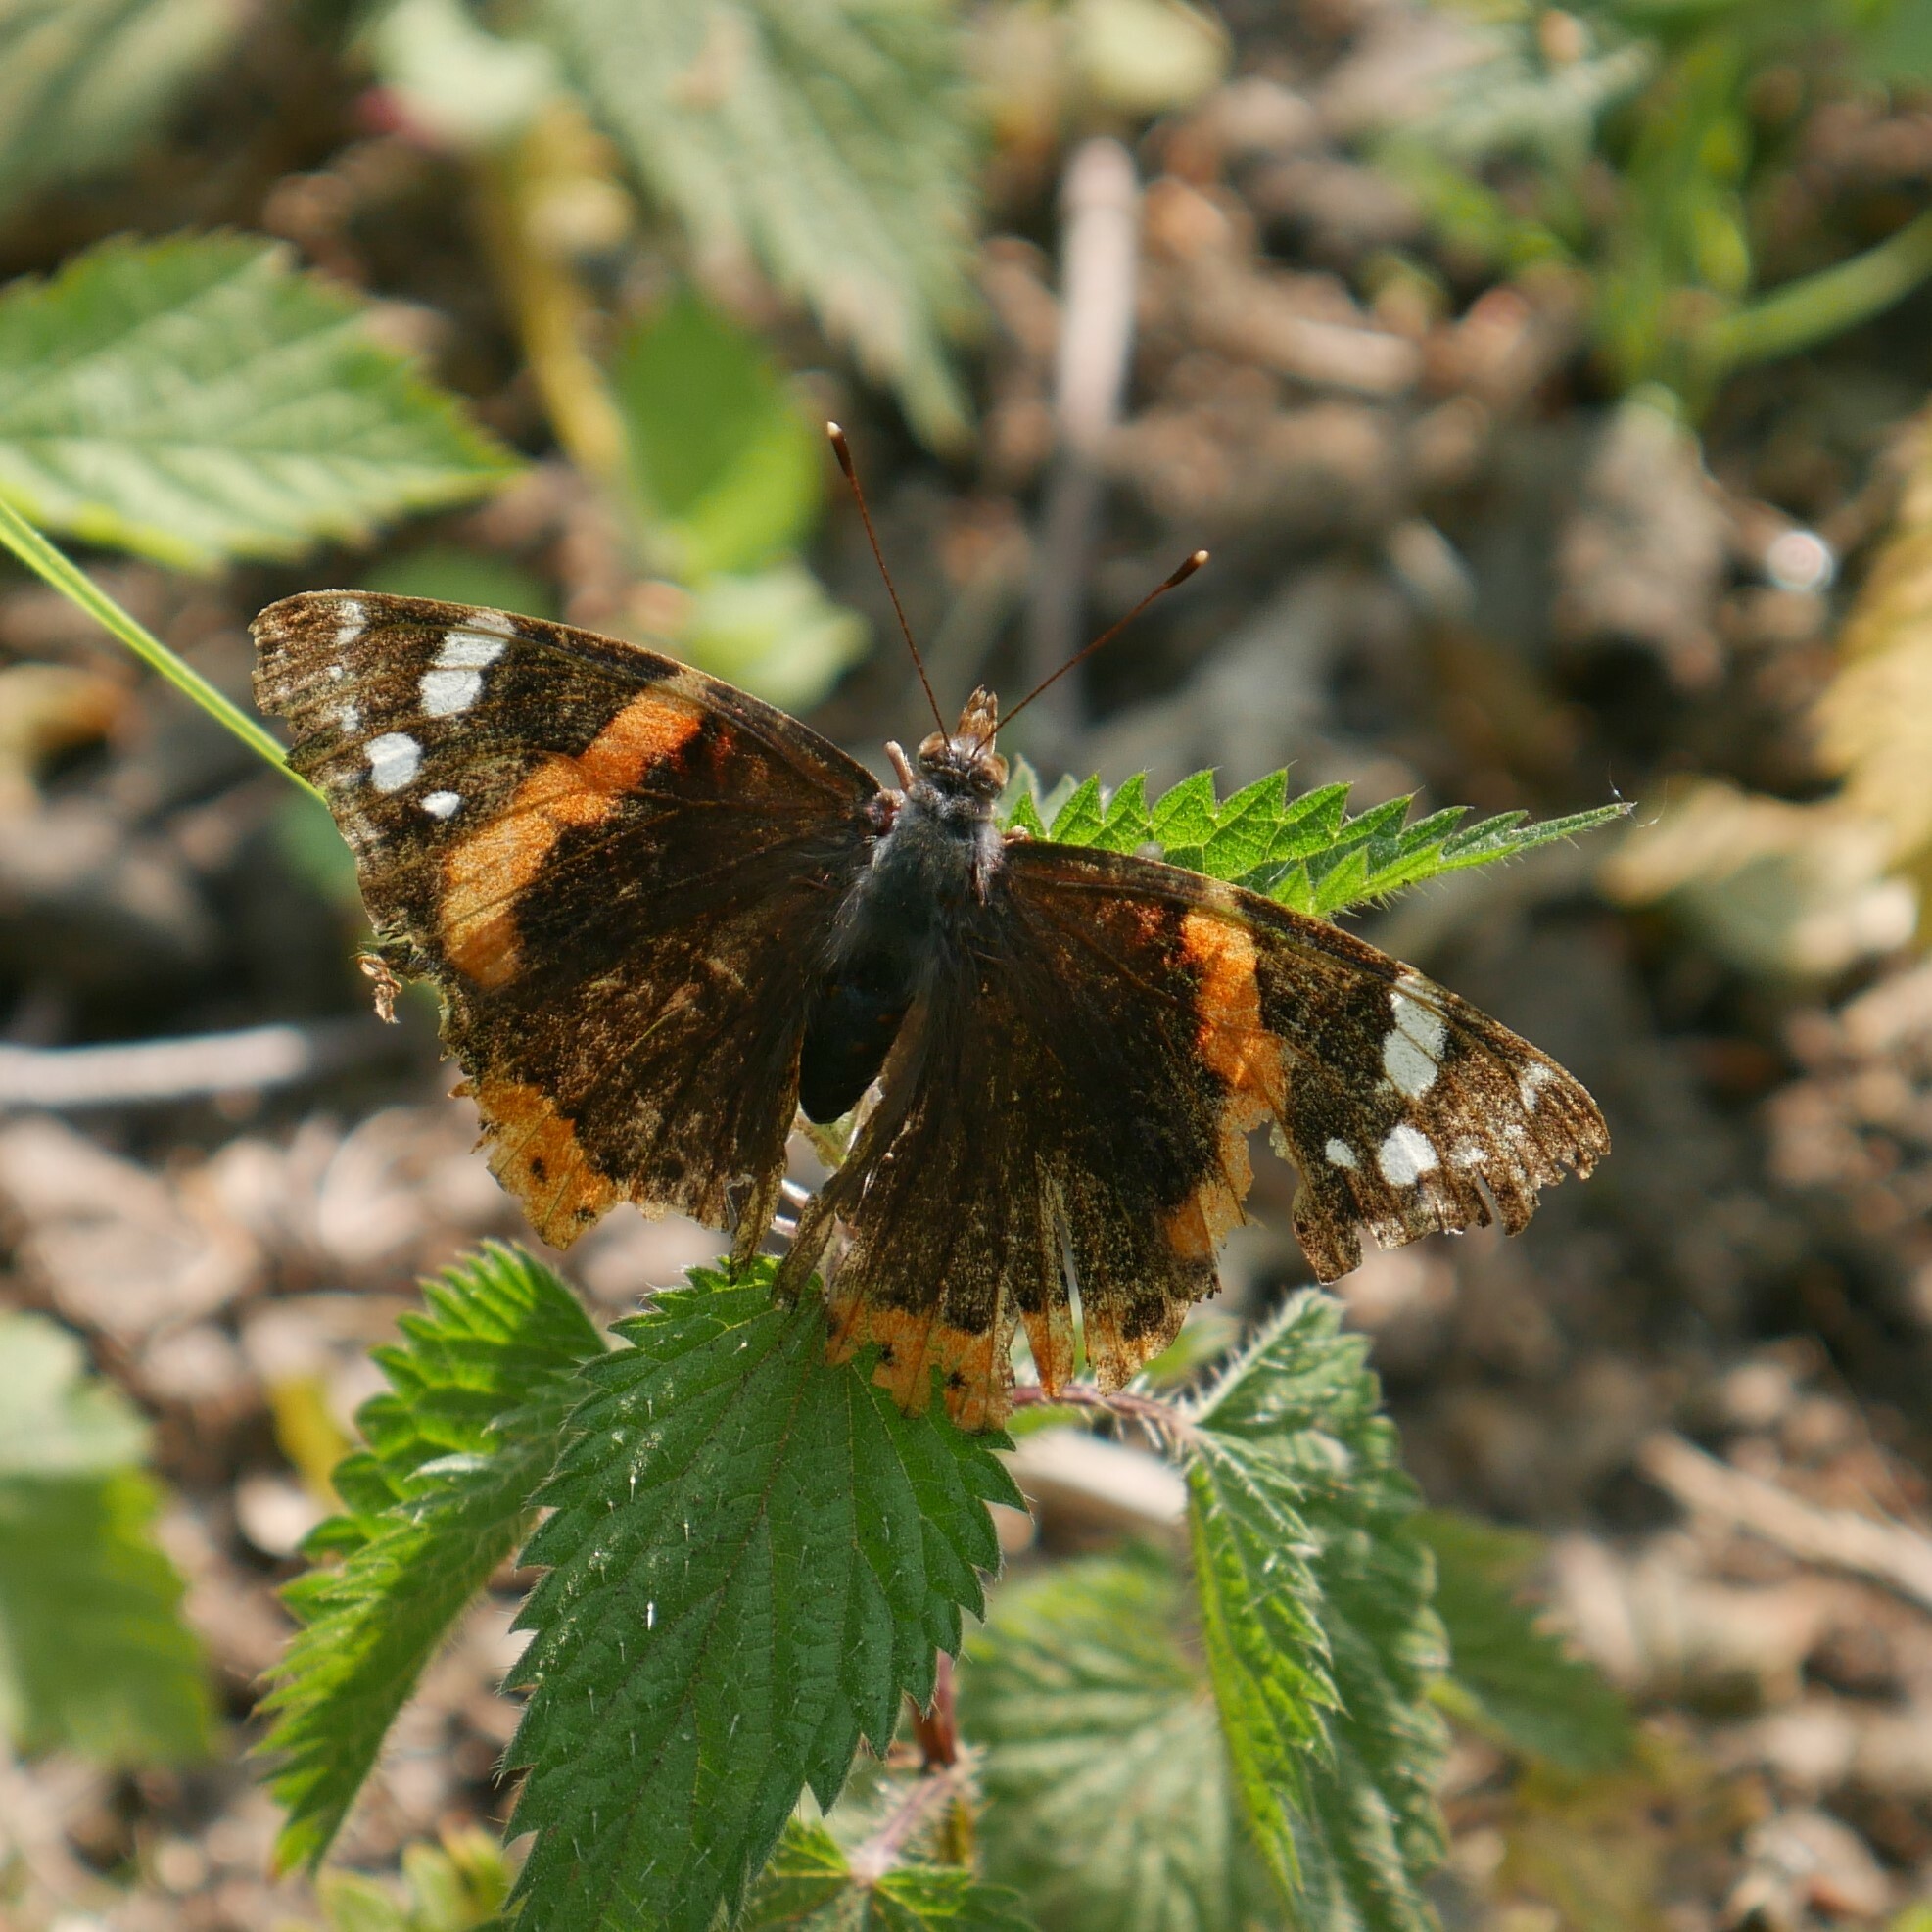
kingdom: Animalia
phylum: Arthropoda
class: Insecta
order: Lepidoptera
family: Nymphalidae
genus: Vanessa
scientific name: Vanessa atalanta
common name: Red admiral
